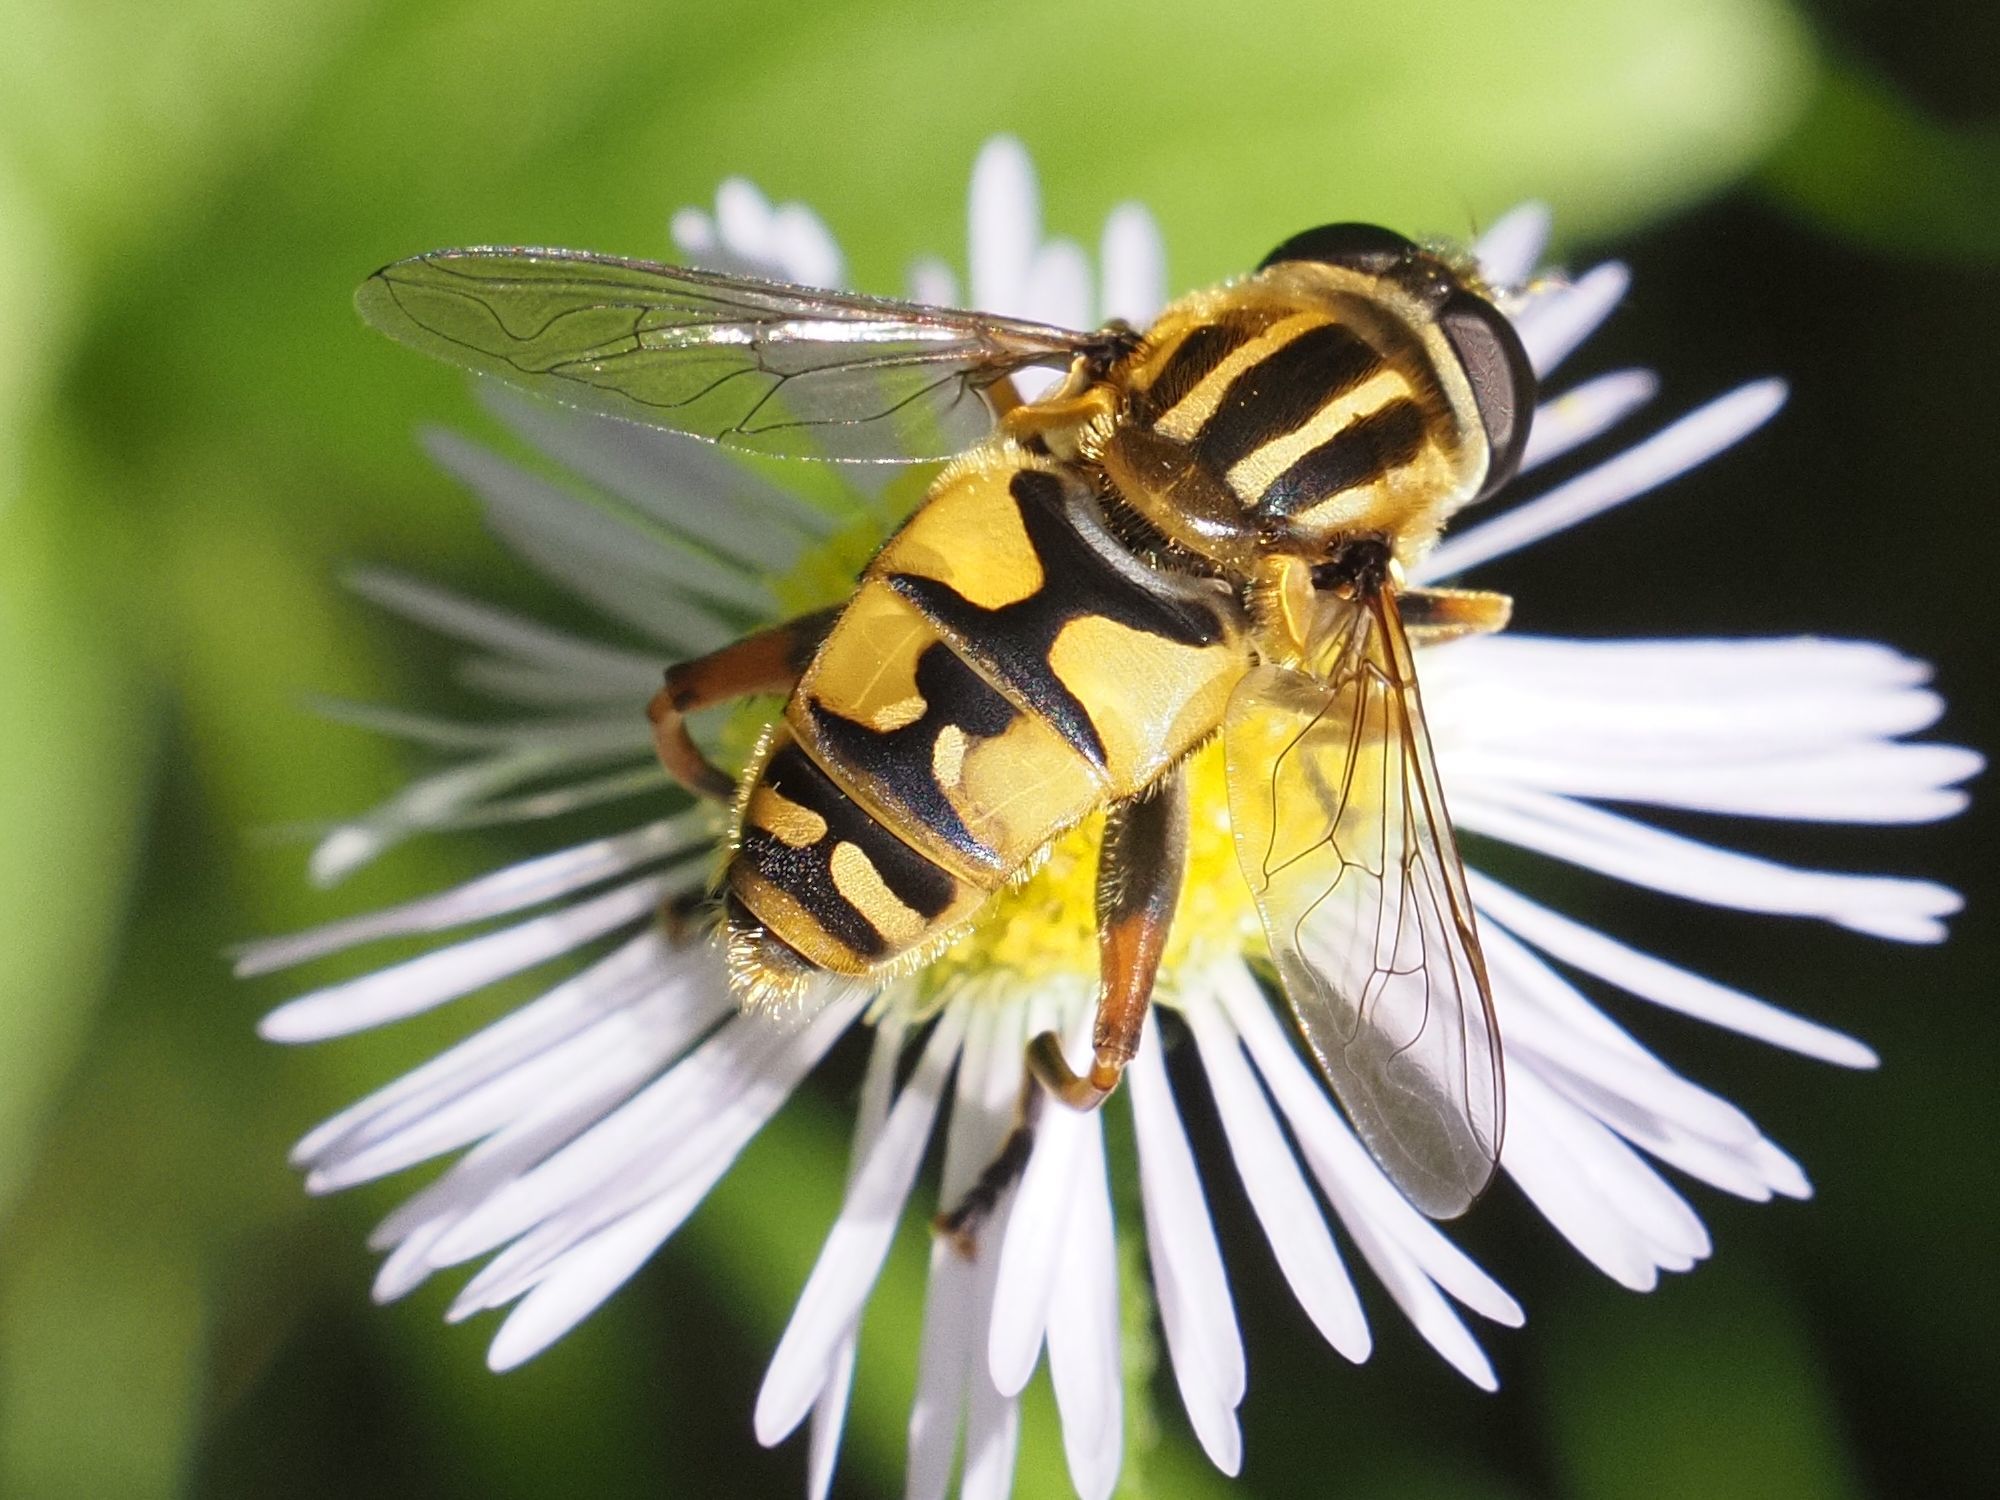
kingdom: Animalia
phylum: Arthropoda
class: Insecta
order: Diptera
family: Syrphidae
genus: Helophilus
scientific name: Helophilus pendulus
